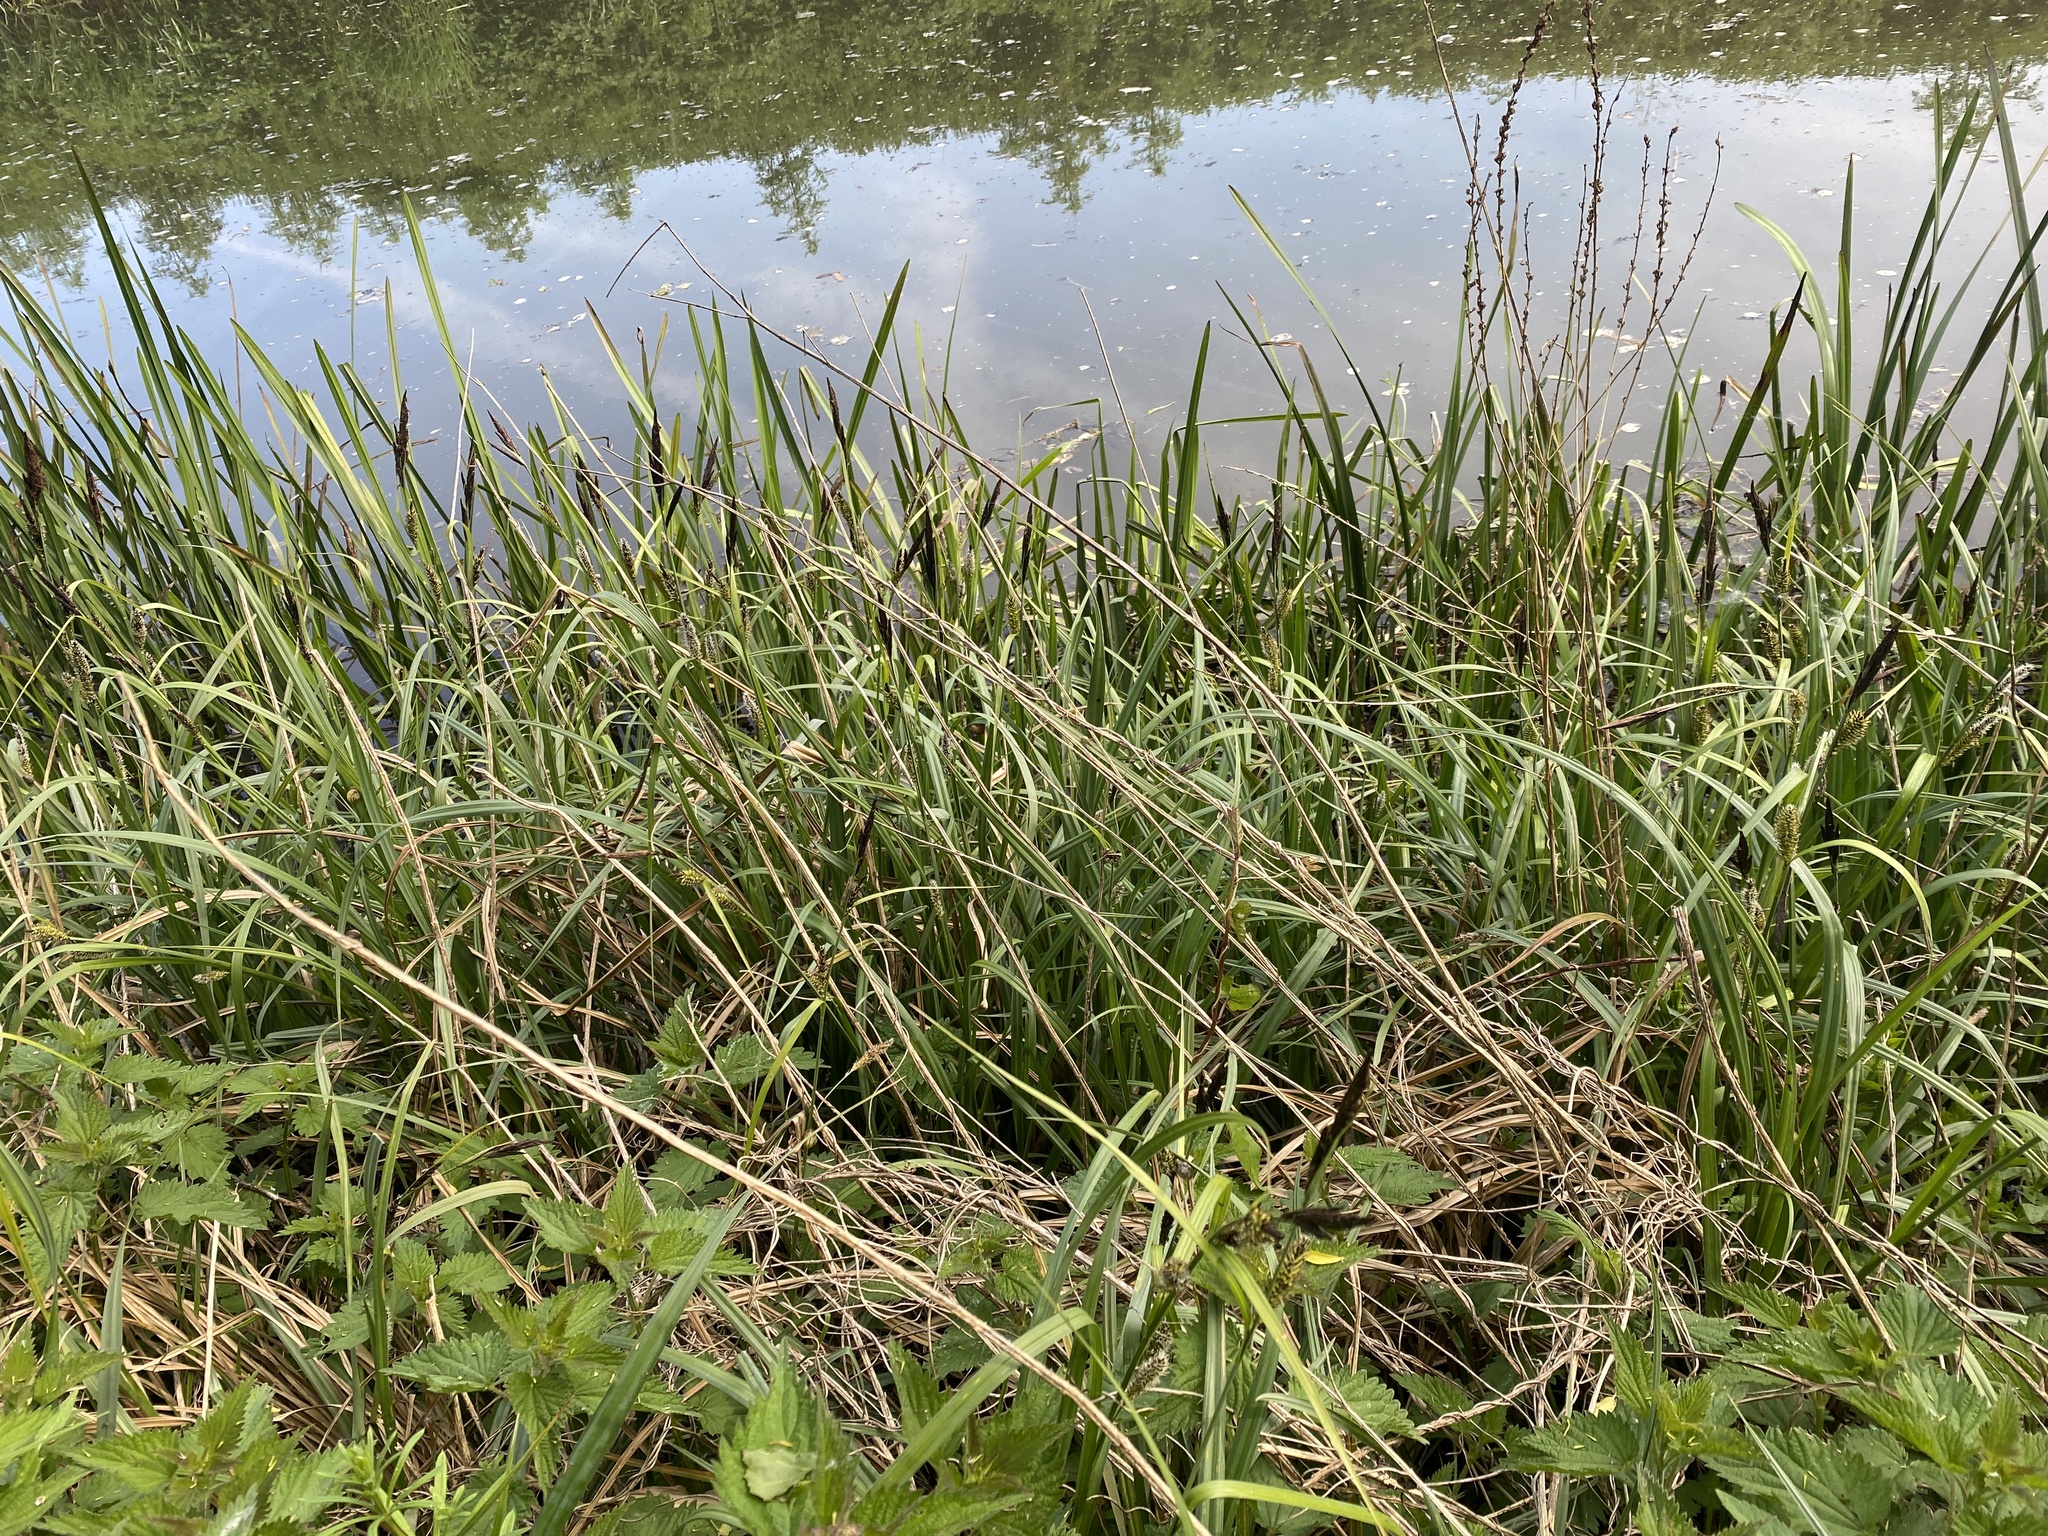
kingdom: Plantae
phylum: Tracheophyta
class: Liliopsida
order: Poales
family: Cyperaceae
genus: Carex
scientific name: Carex riparia
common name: Greater pond-sedge
